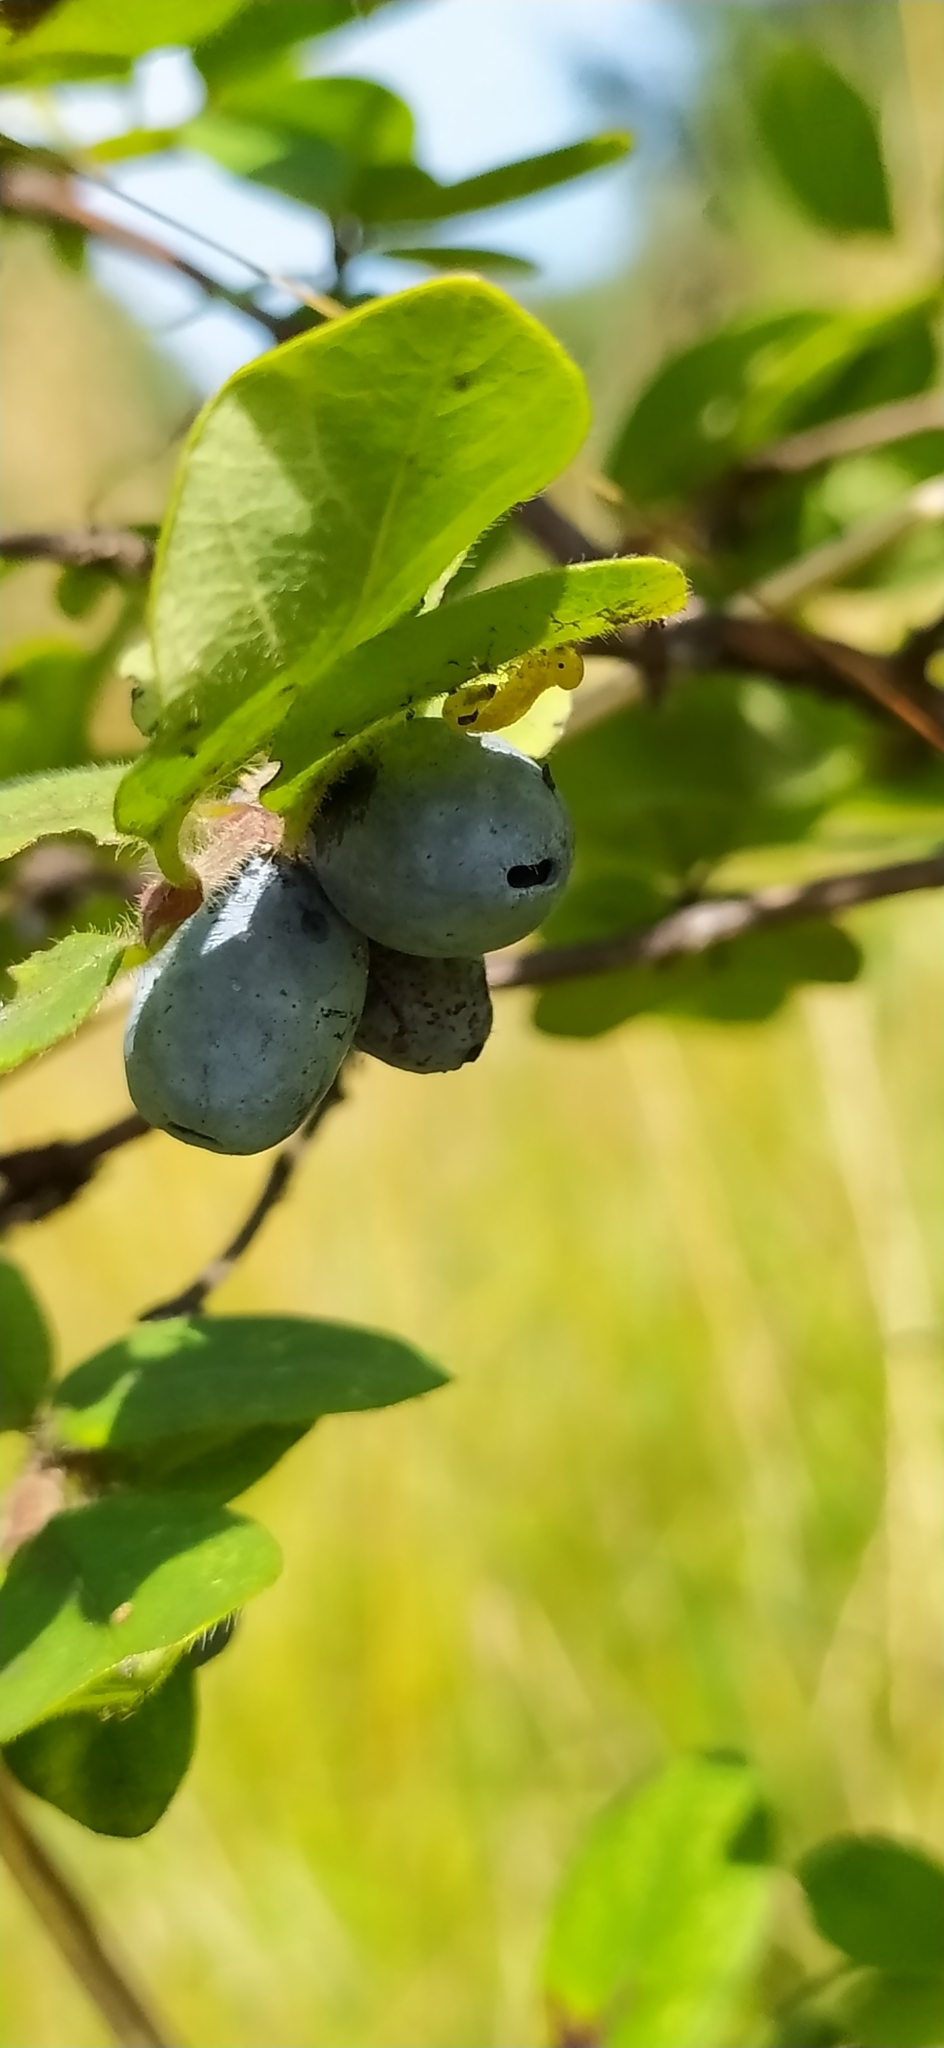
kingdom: Plantae
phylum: Tracheophyta
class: Magnoliopsida
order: Dipsacales
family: Caprifoliaceae
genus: Lonicera
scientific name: Lonicera caerulea
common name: Blue honeysuckle
